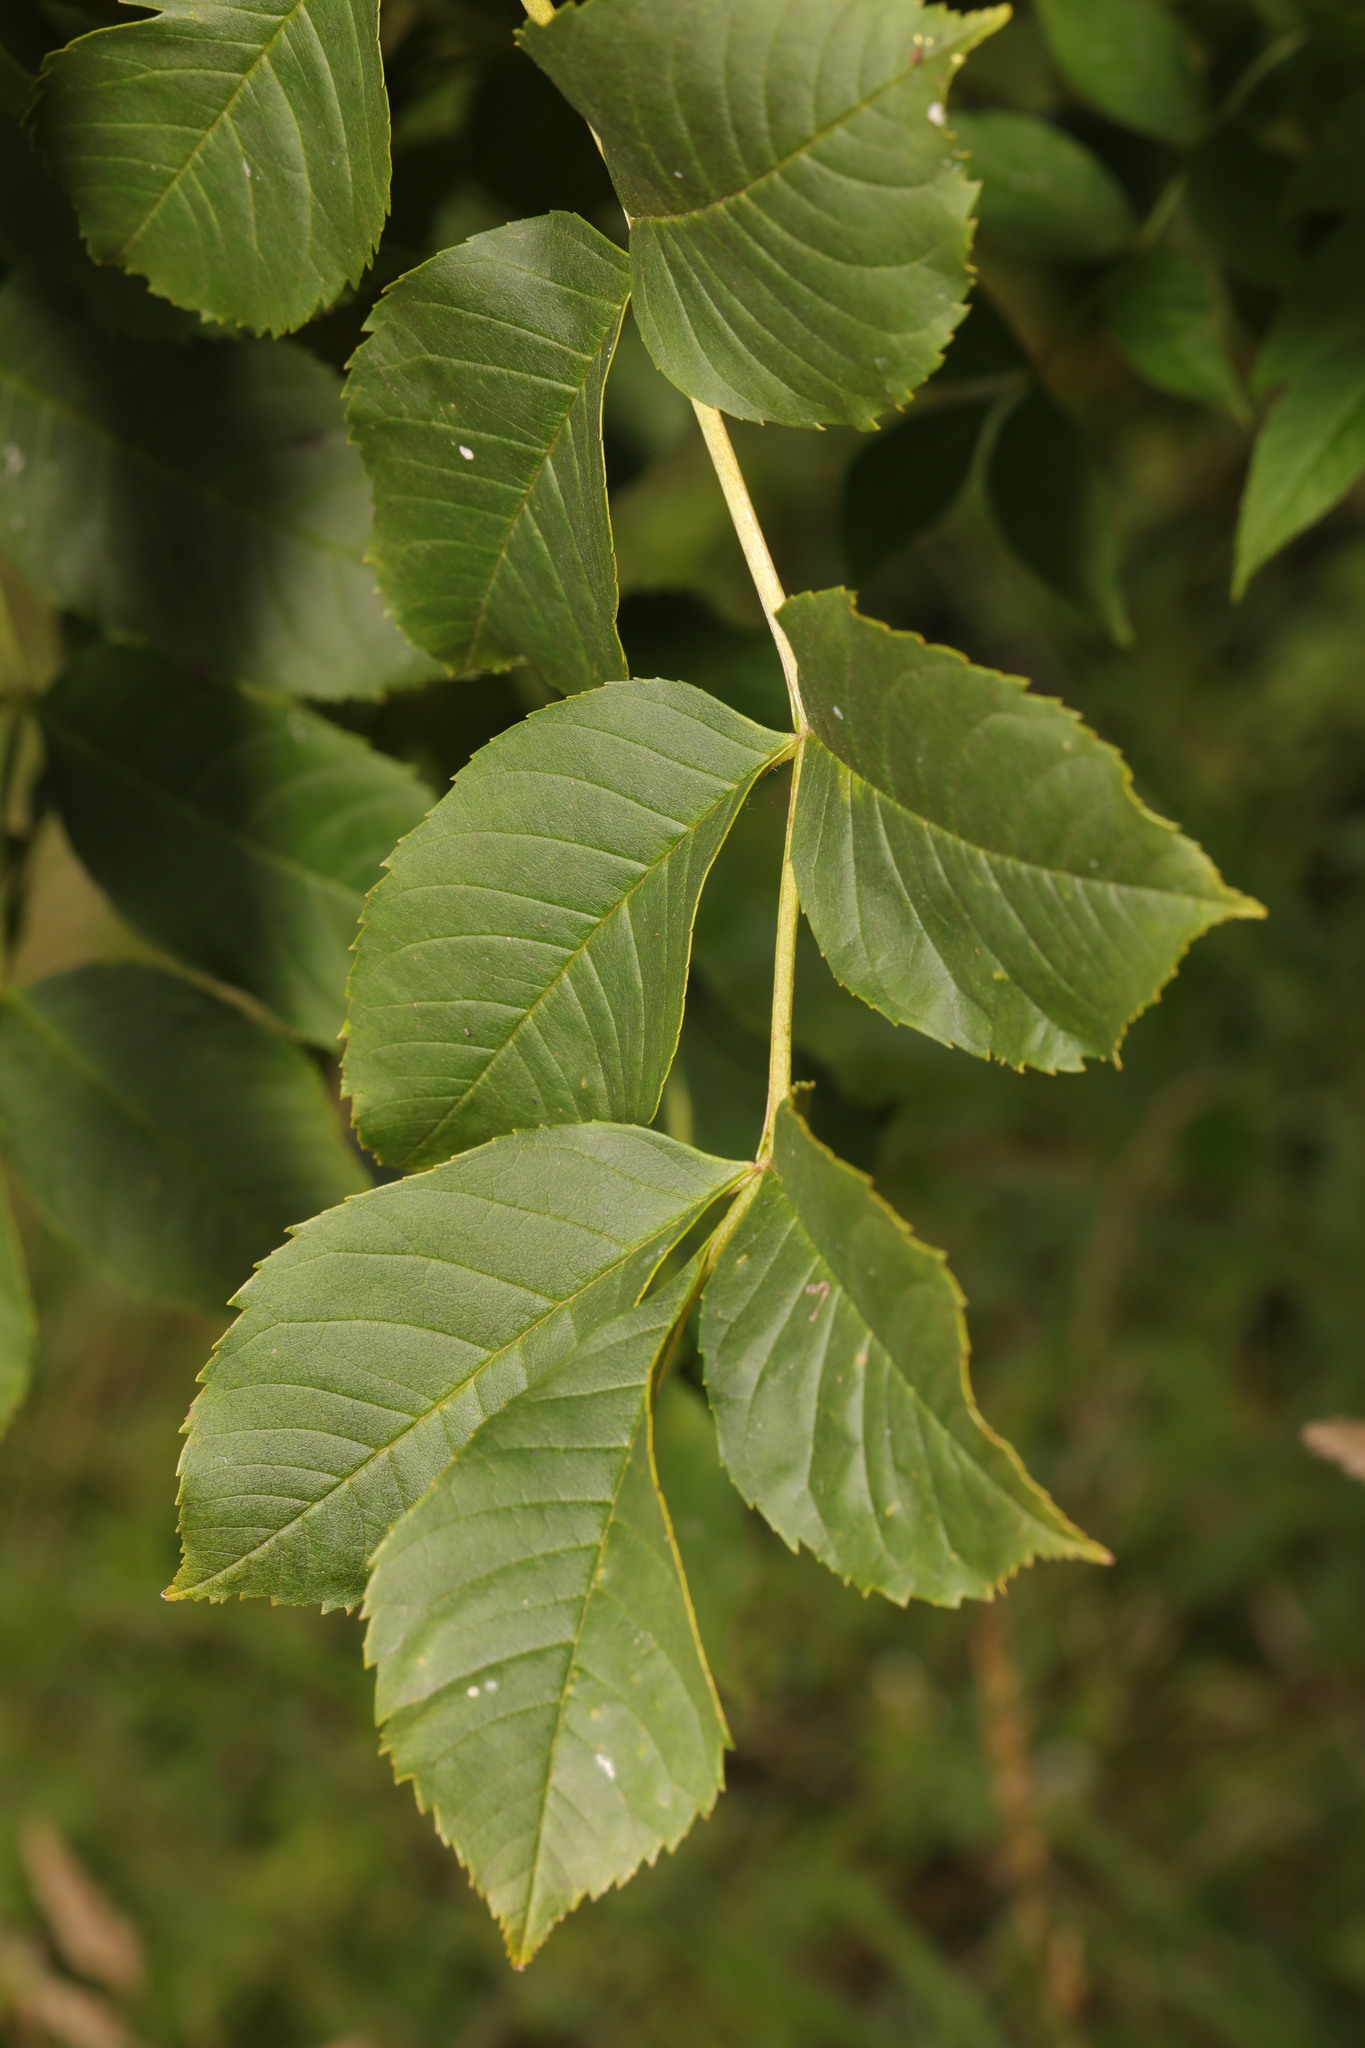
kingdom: Plantae
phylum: Tracheophyta
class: Magnoliopsida
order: Lamiales
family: Oleaceae
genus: Fraxinus
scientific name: Fraxinus excelsior
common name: European ash
